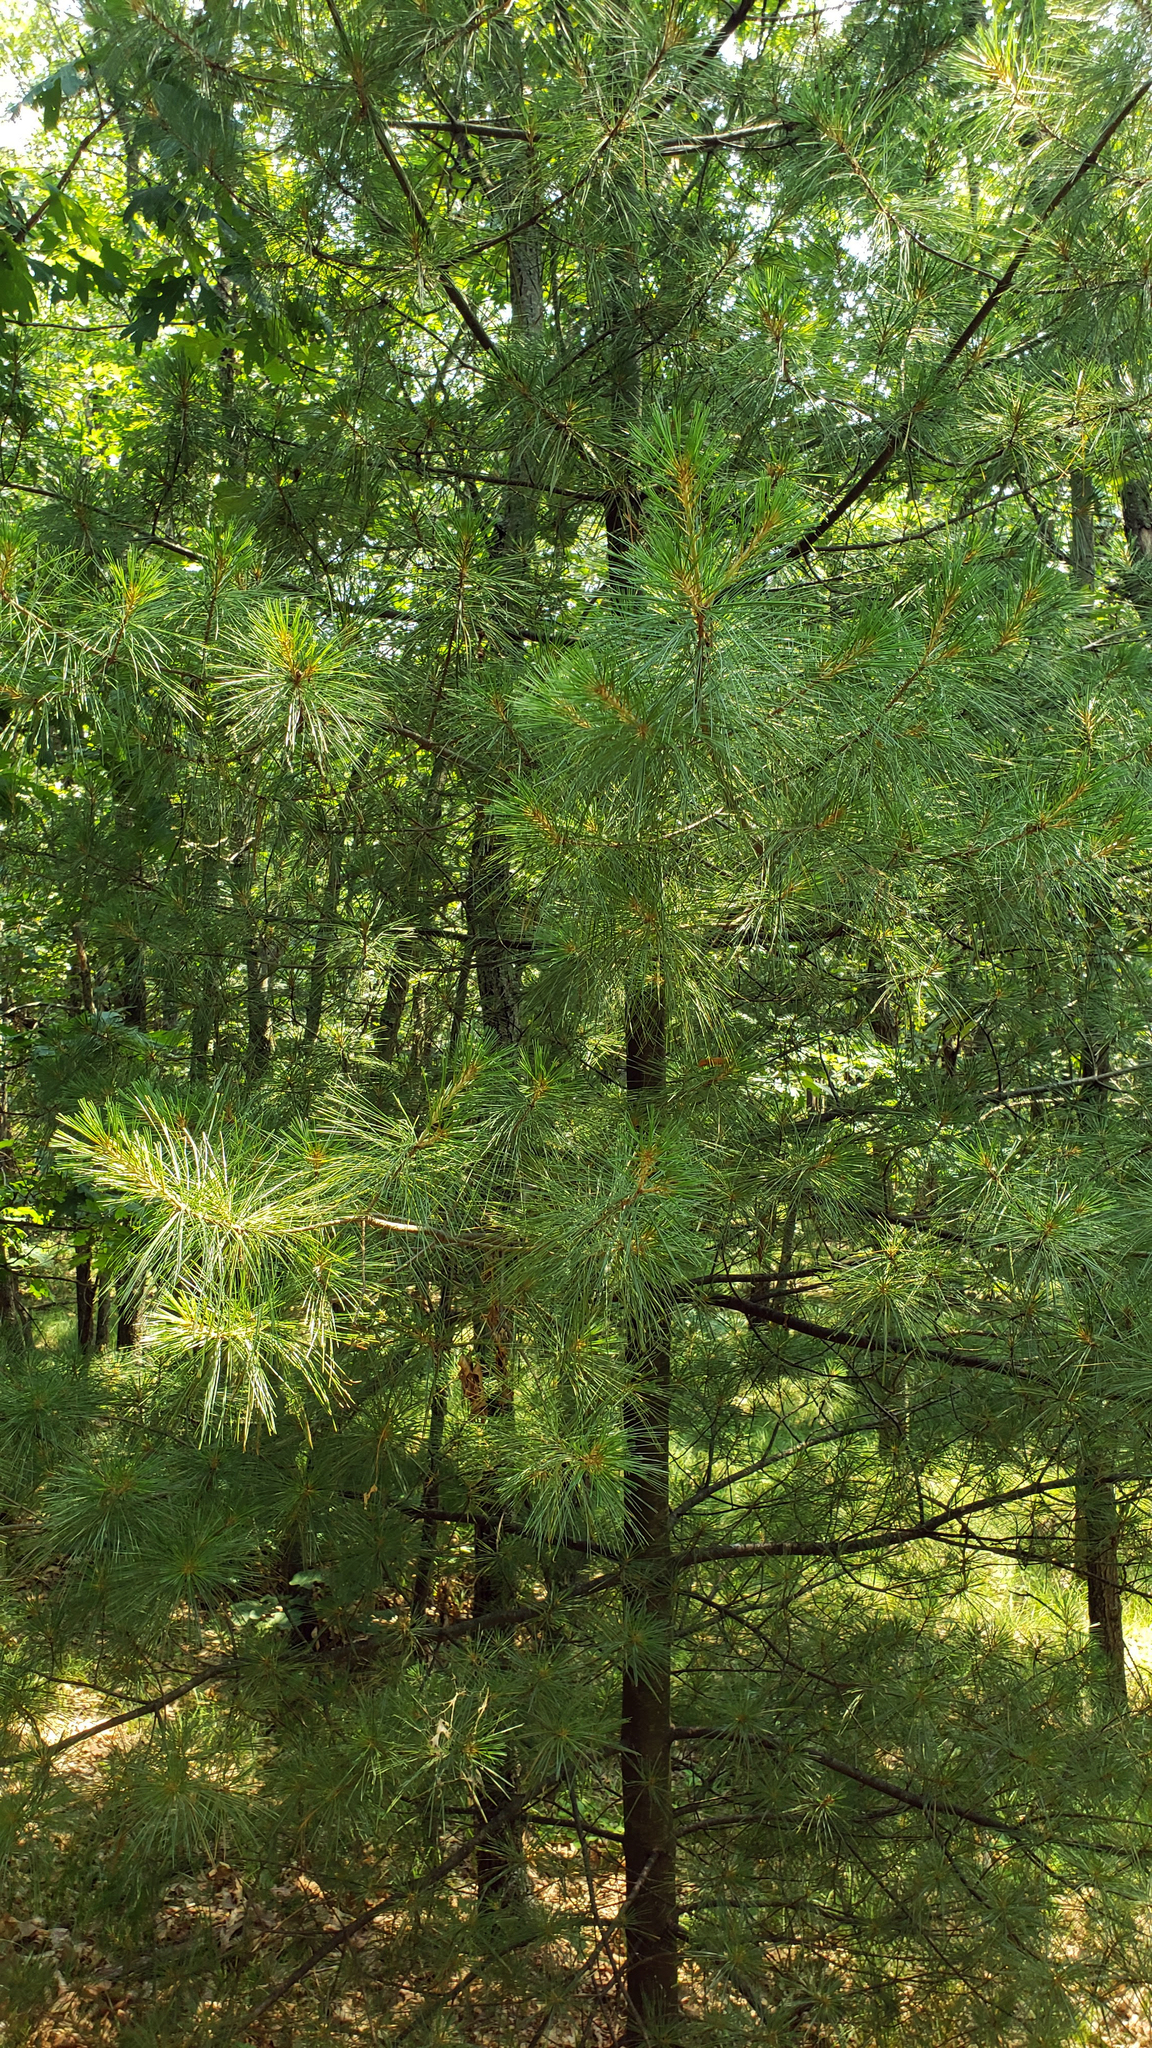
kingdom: Plantae
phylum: Tracheophyta
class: Pinopsida
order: Pinales
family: Pinaceae
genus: Pinus
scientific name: Pinus strobus
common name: Weymouth pine
